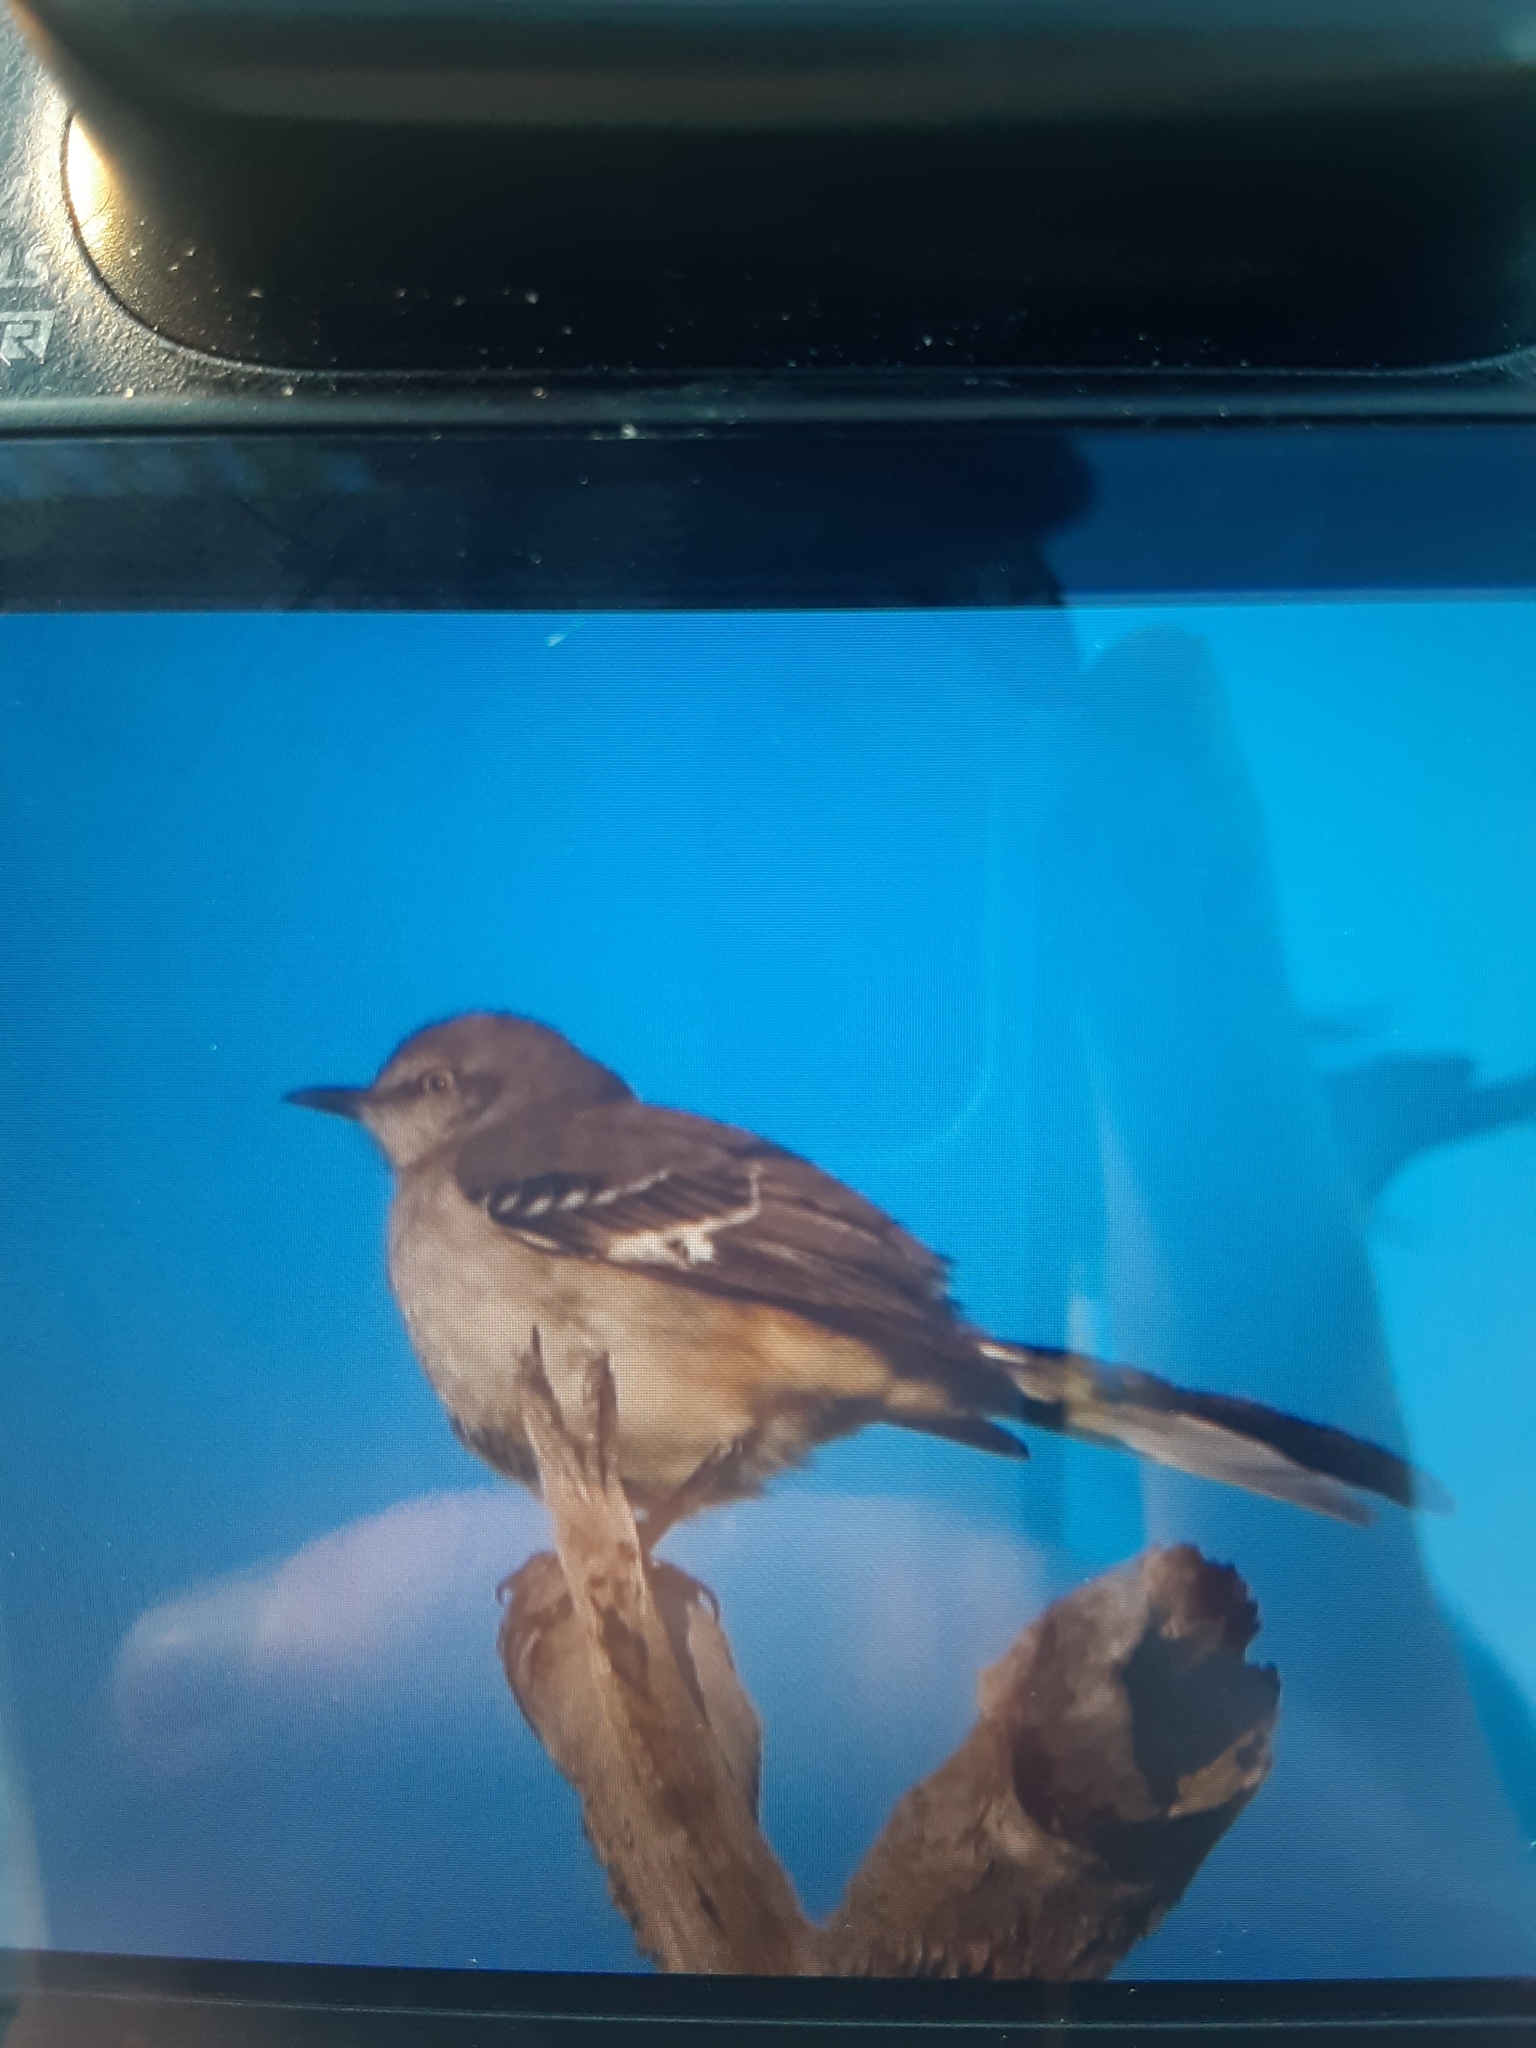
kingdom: Animalia
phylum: Chordata
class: Aves
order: Passeriformes
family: Mimidae
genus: Mimus
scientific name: Mimus polyglottos
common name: Northern mockingbird
